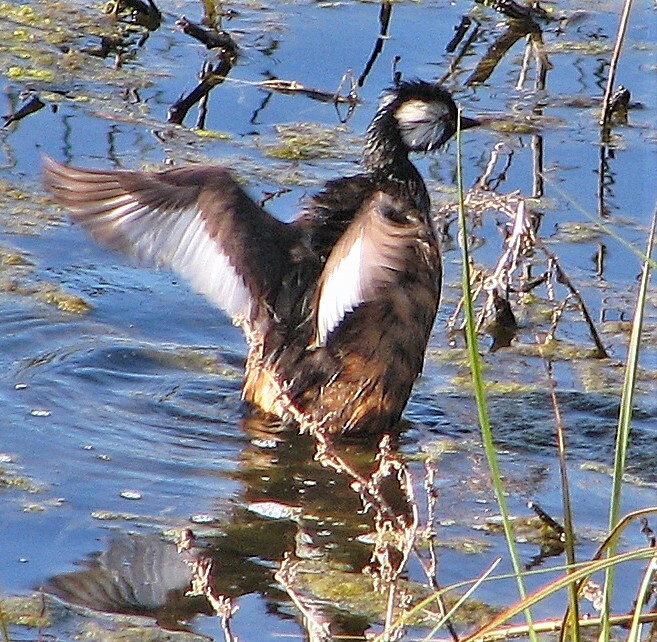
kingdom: Animalia
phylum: Chordata
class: Aves
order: Podicipediformes
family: Podicipedidae
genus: Rollandia
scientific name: Rollandia rolland
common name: White-tufted grebe
